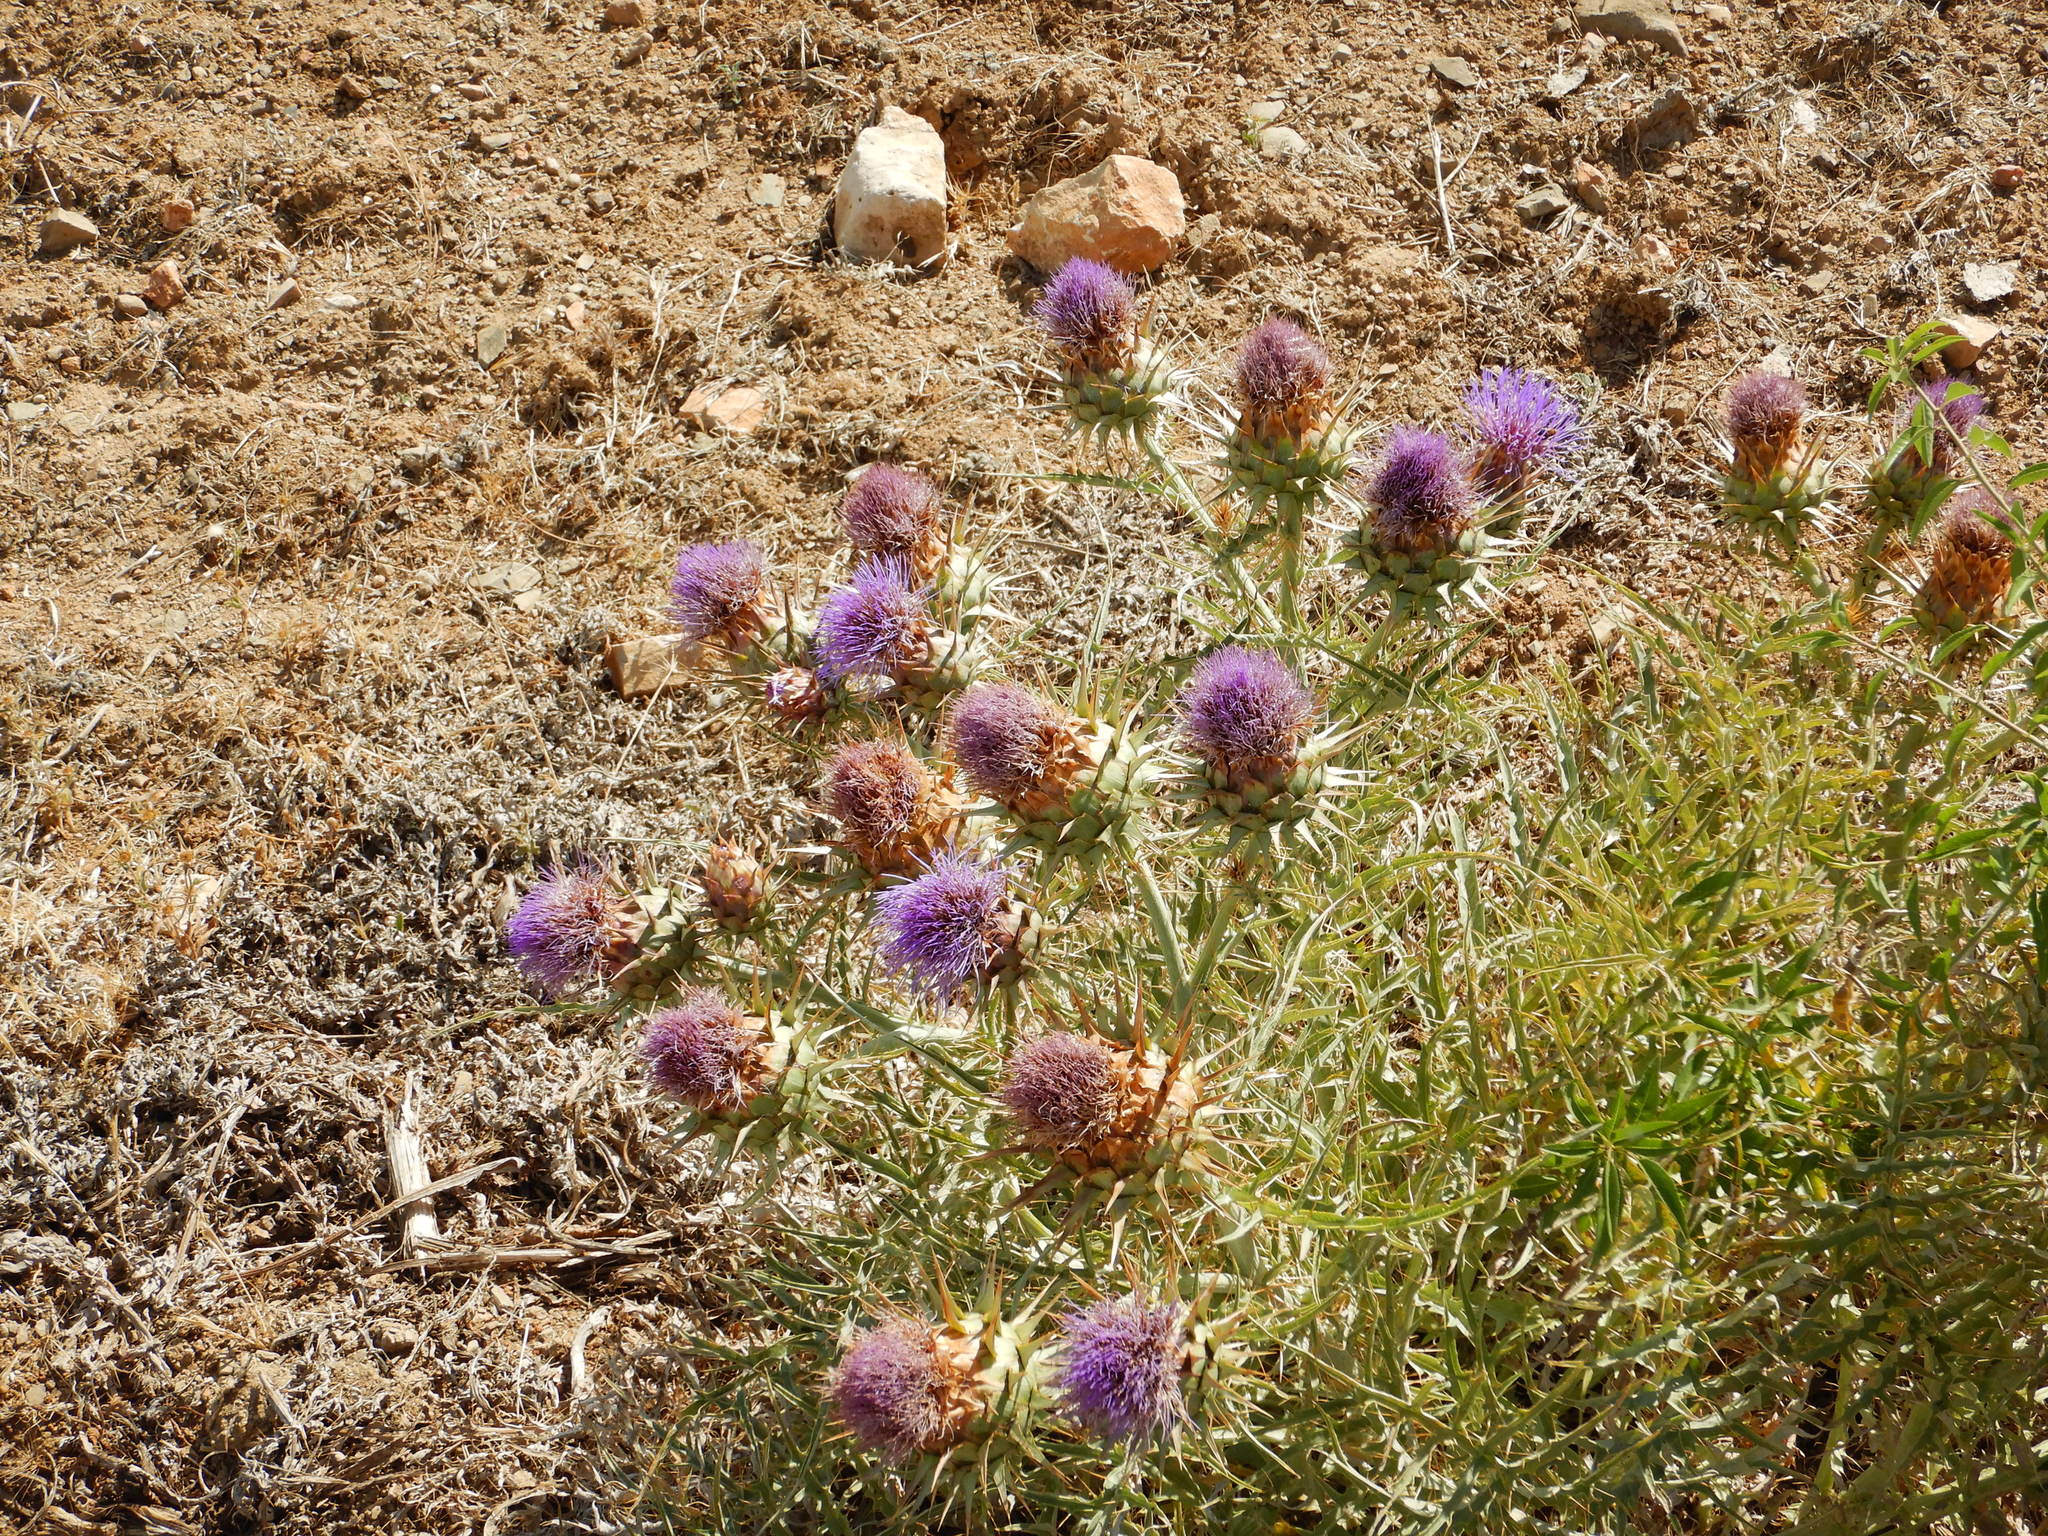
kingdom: Plantae
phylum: Tracheophyta
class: Magnoliopsida
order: Asterales
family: Asteraceae
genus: Cynara
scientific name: Cynara cardunculus
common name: Globe artichoke
